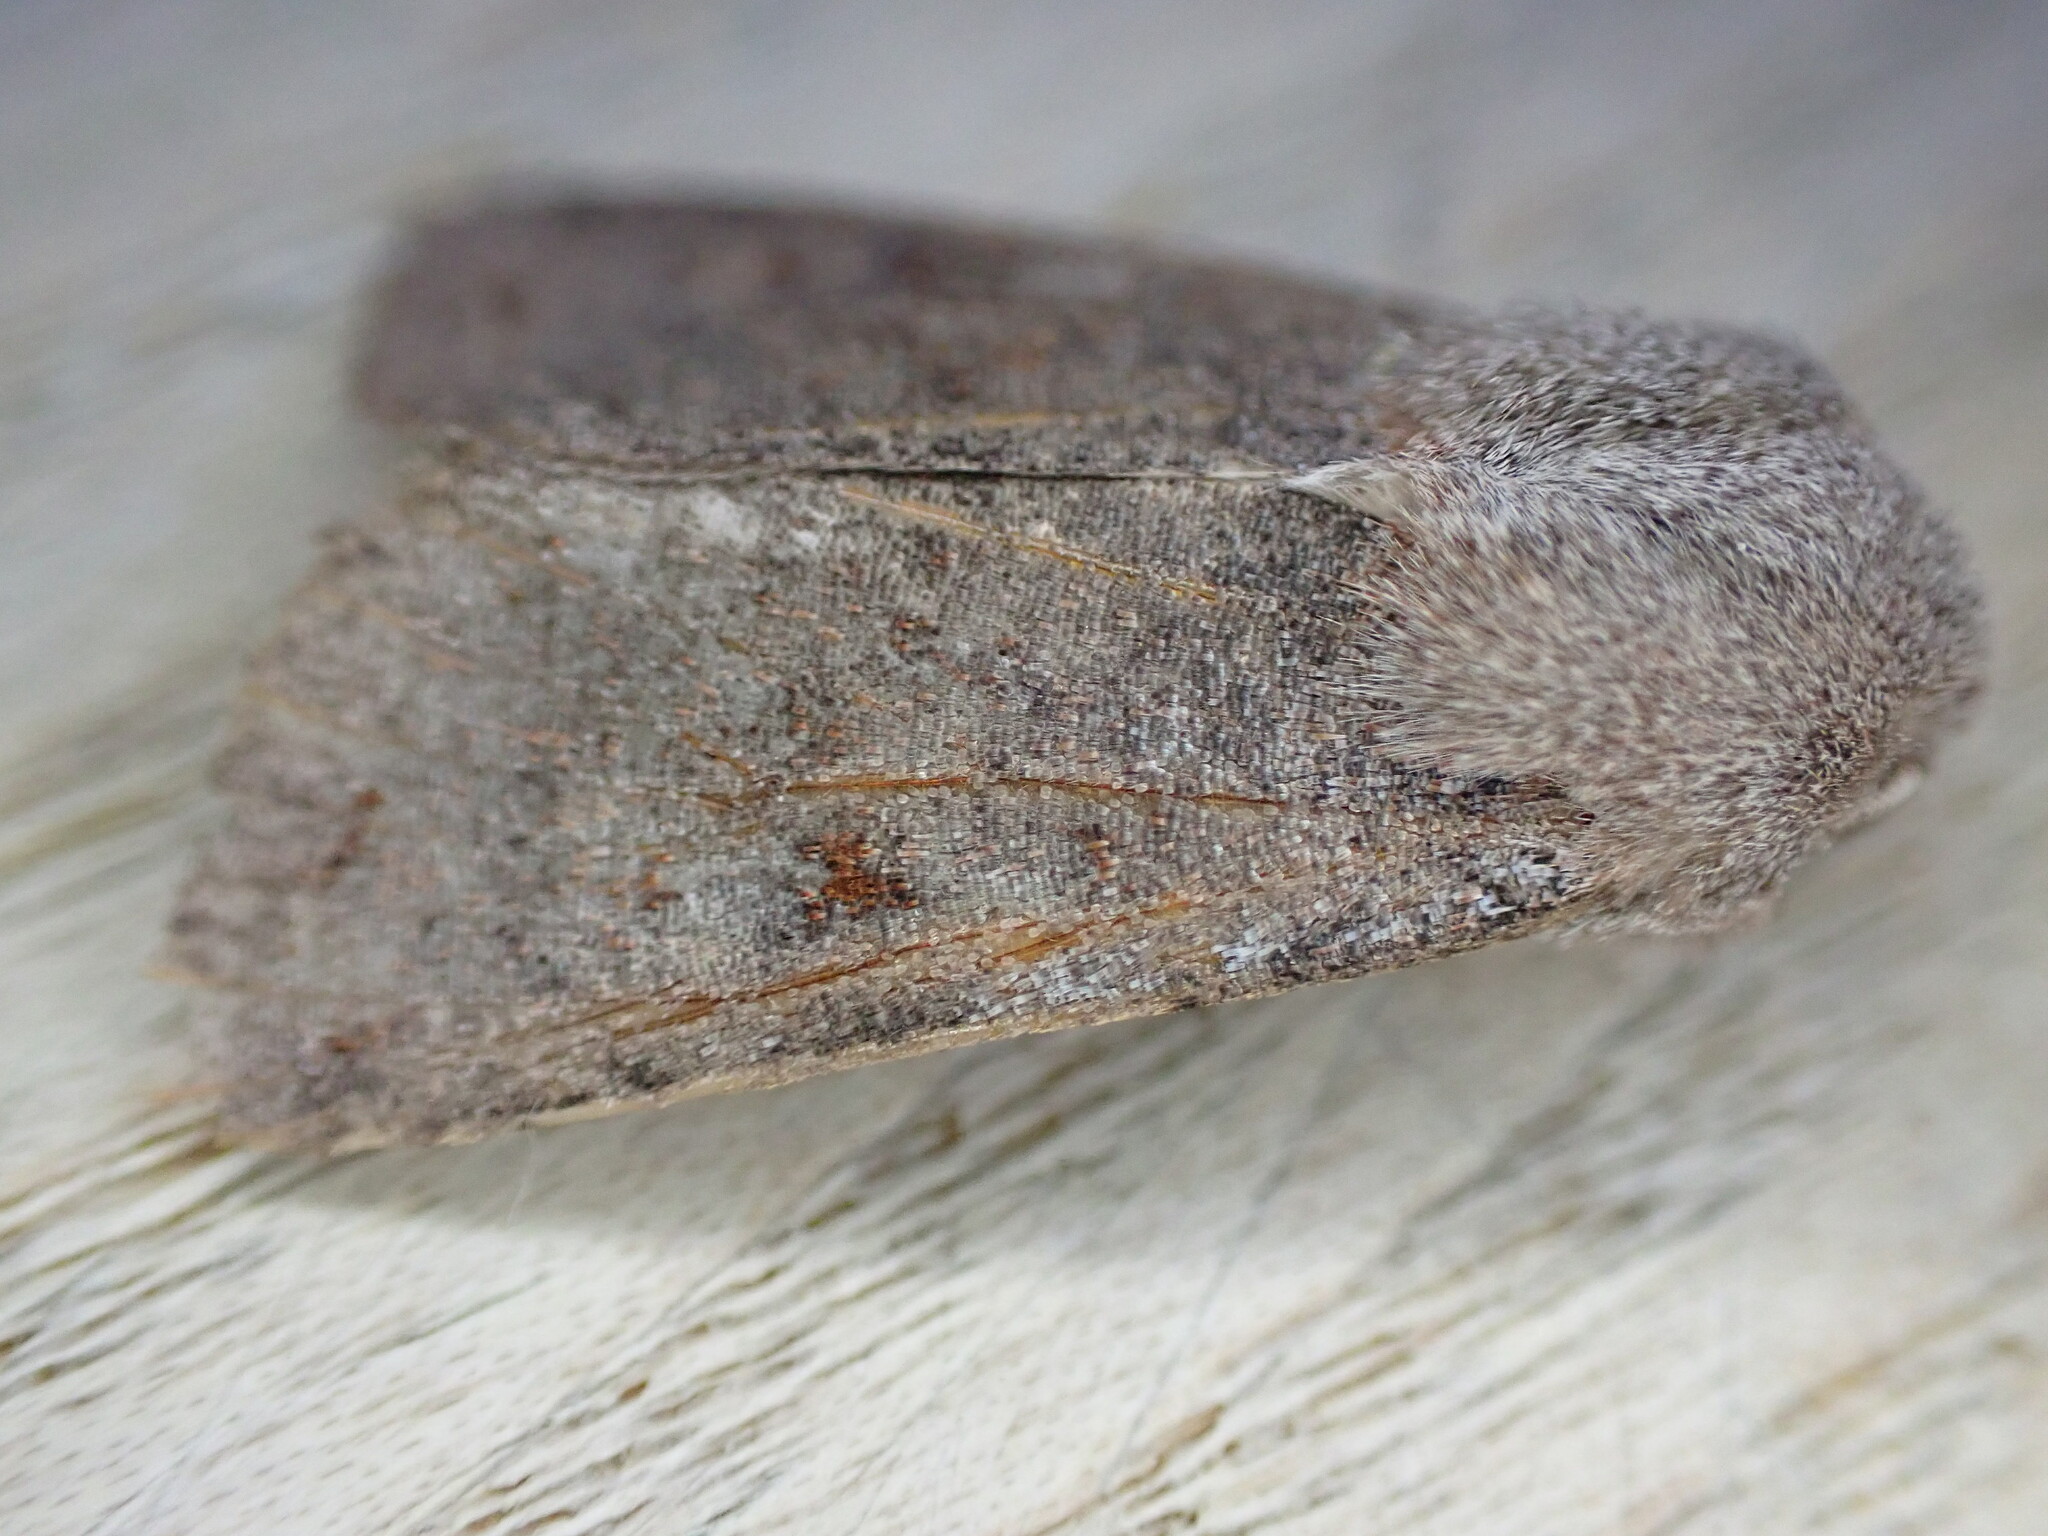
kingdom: Animalia
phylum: Arthropoda
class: Insecta
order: Lepidoptera
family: Noctuidae
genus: Orthosia
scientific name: Orthosia incerta
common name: Clouded drab
